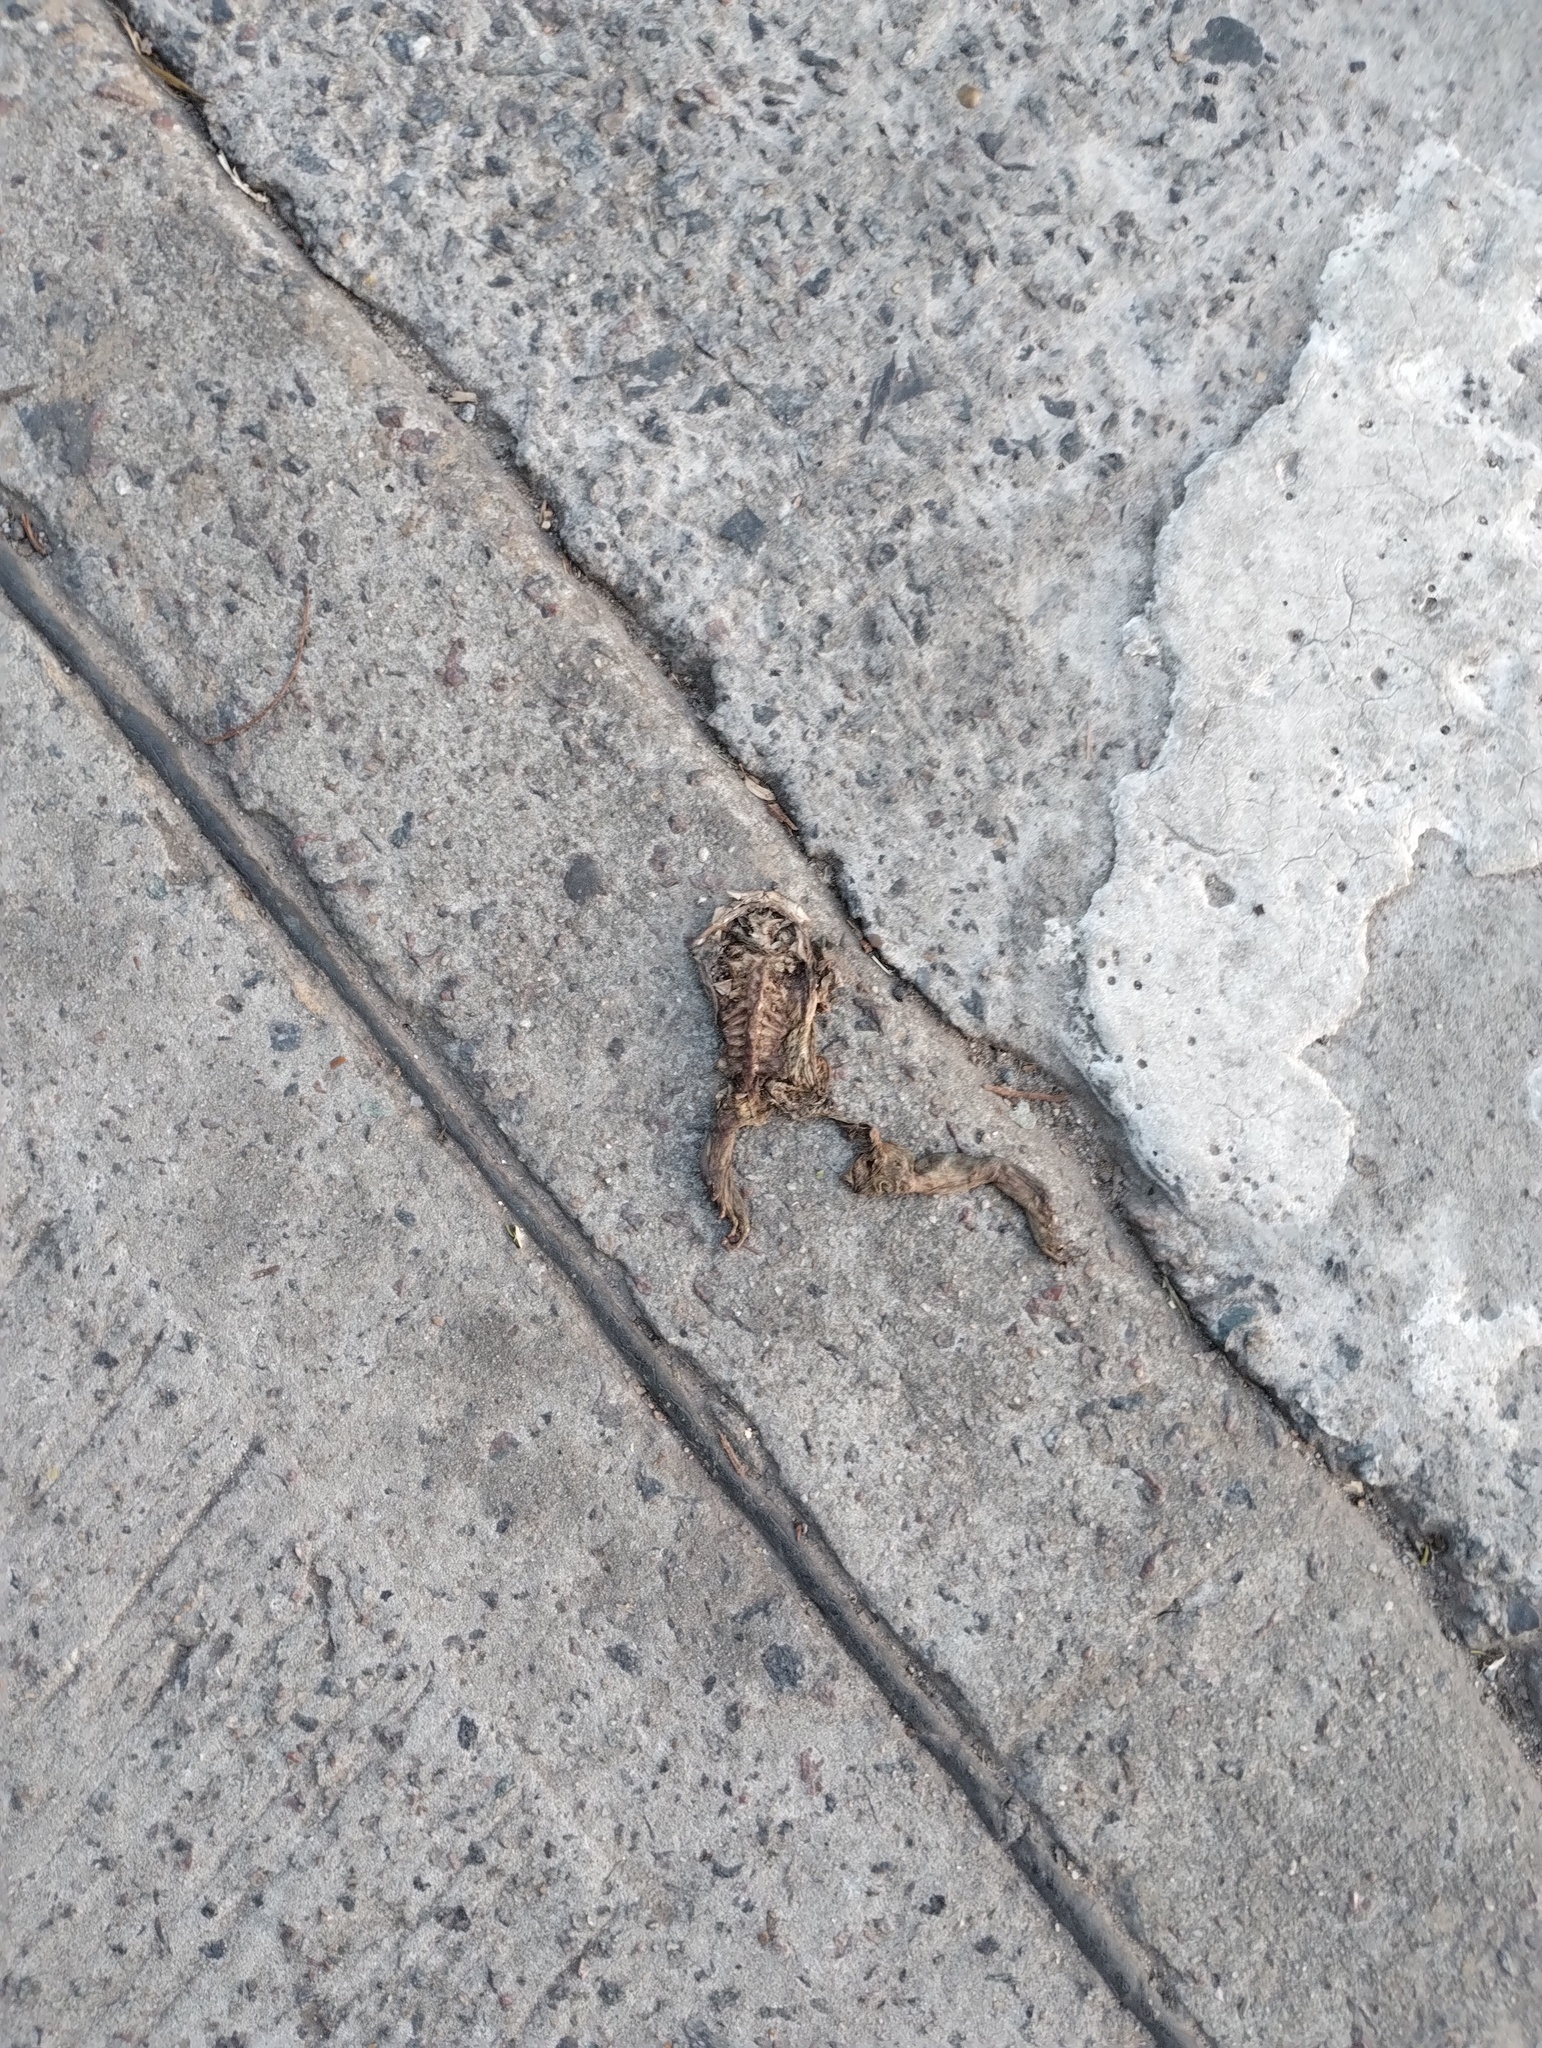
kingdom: Animalia
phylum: Chordata
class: Amphibia
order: Anura
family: Bufonidae
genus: Rhinella
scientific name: Rhinella
